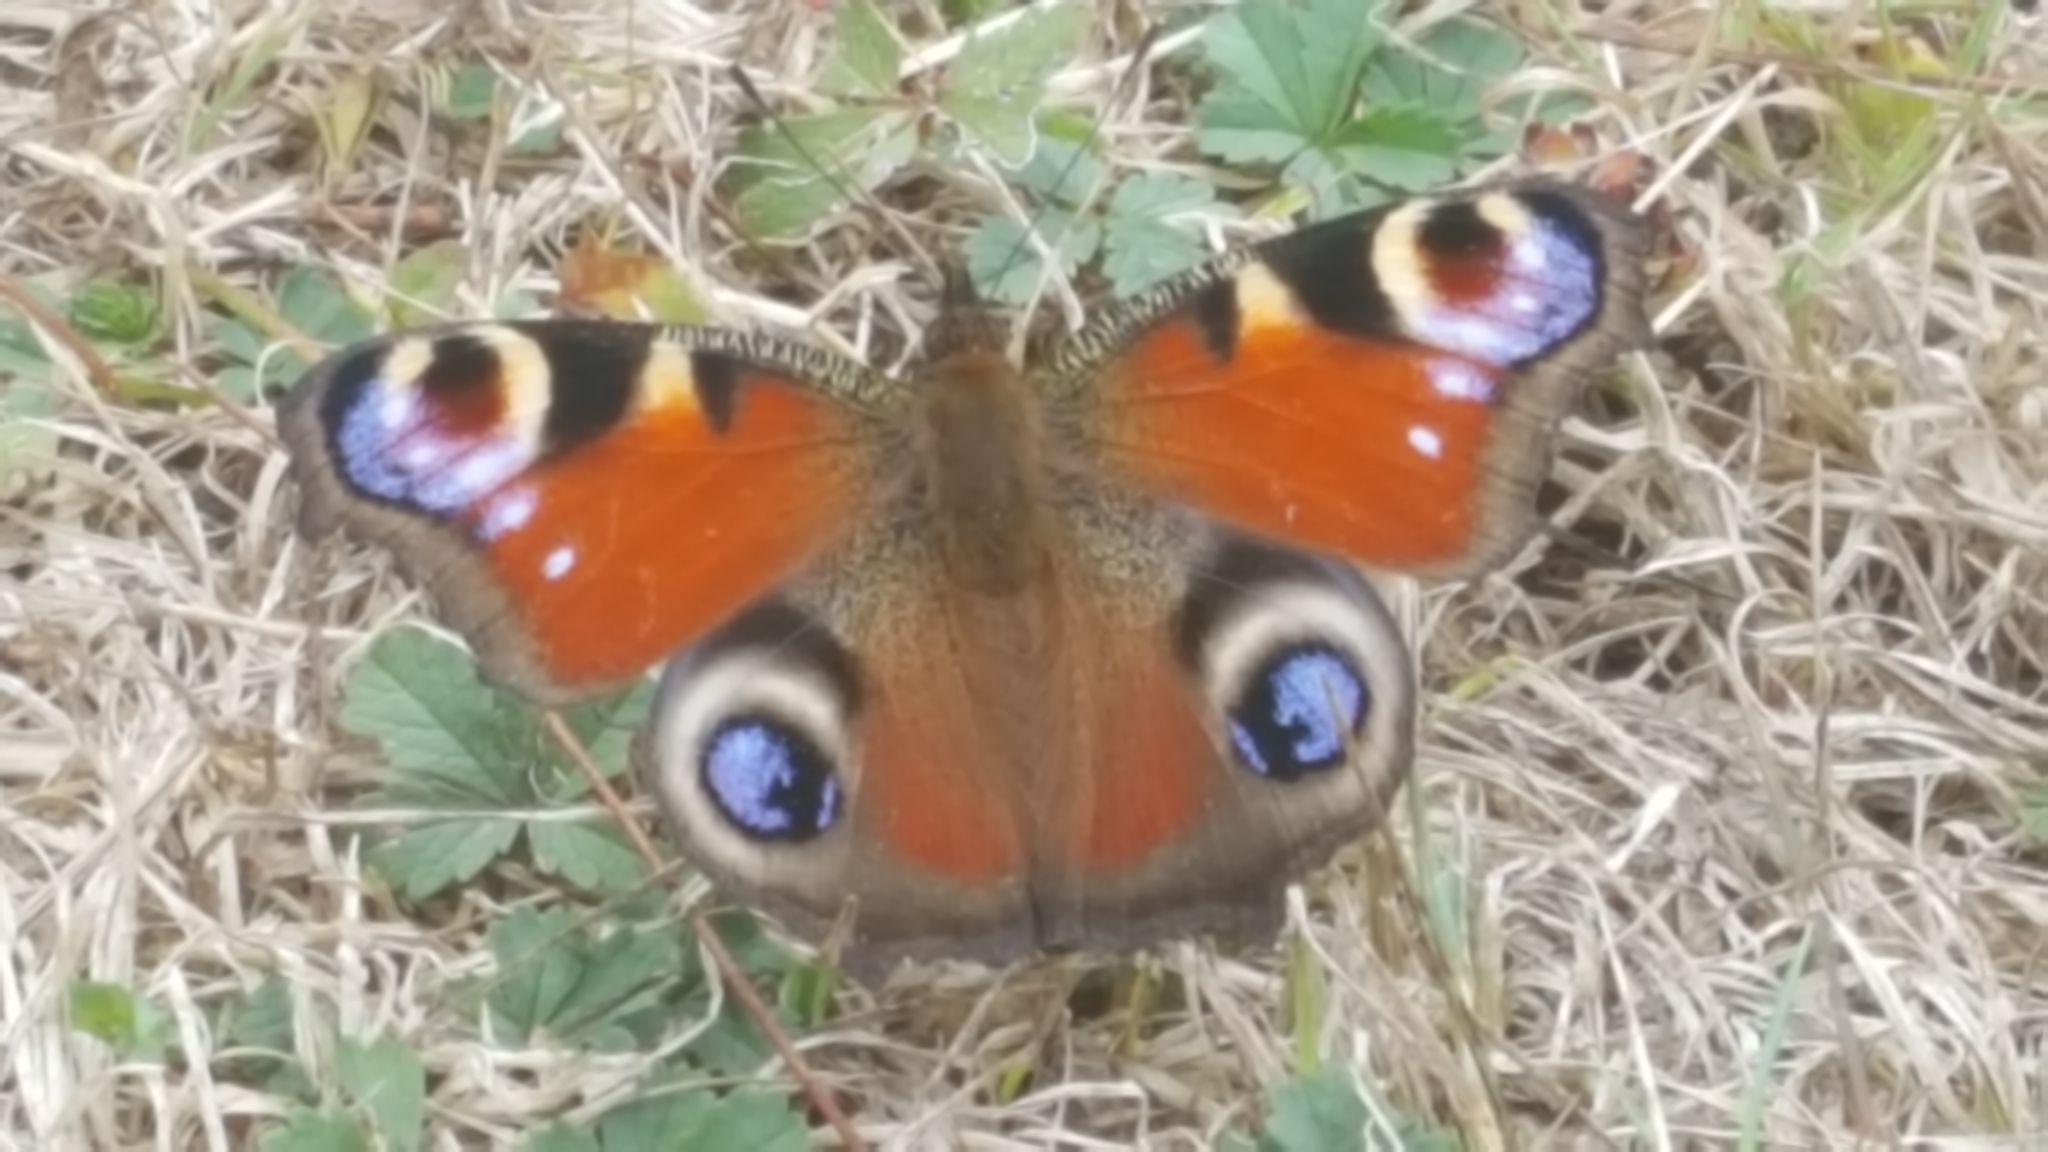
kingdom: Animalia
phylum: Arthropoda
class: Insecta
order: Lepidoptera
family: Nymphalidae
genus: Aglais
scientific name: Aglais io
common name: Peacock
